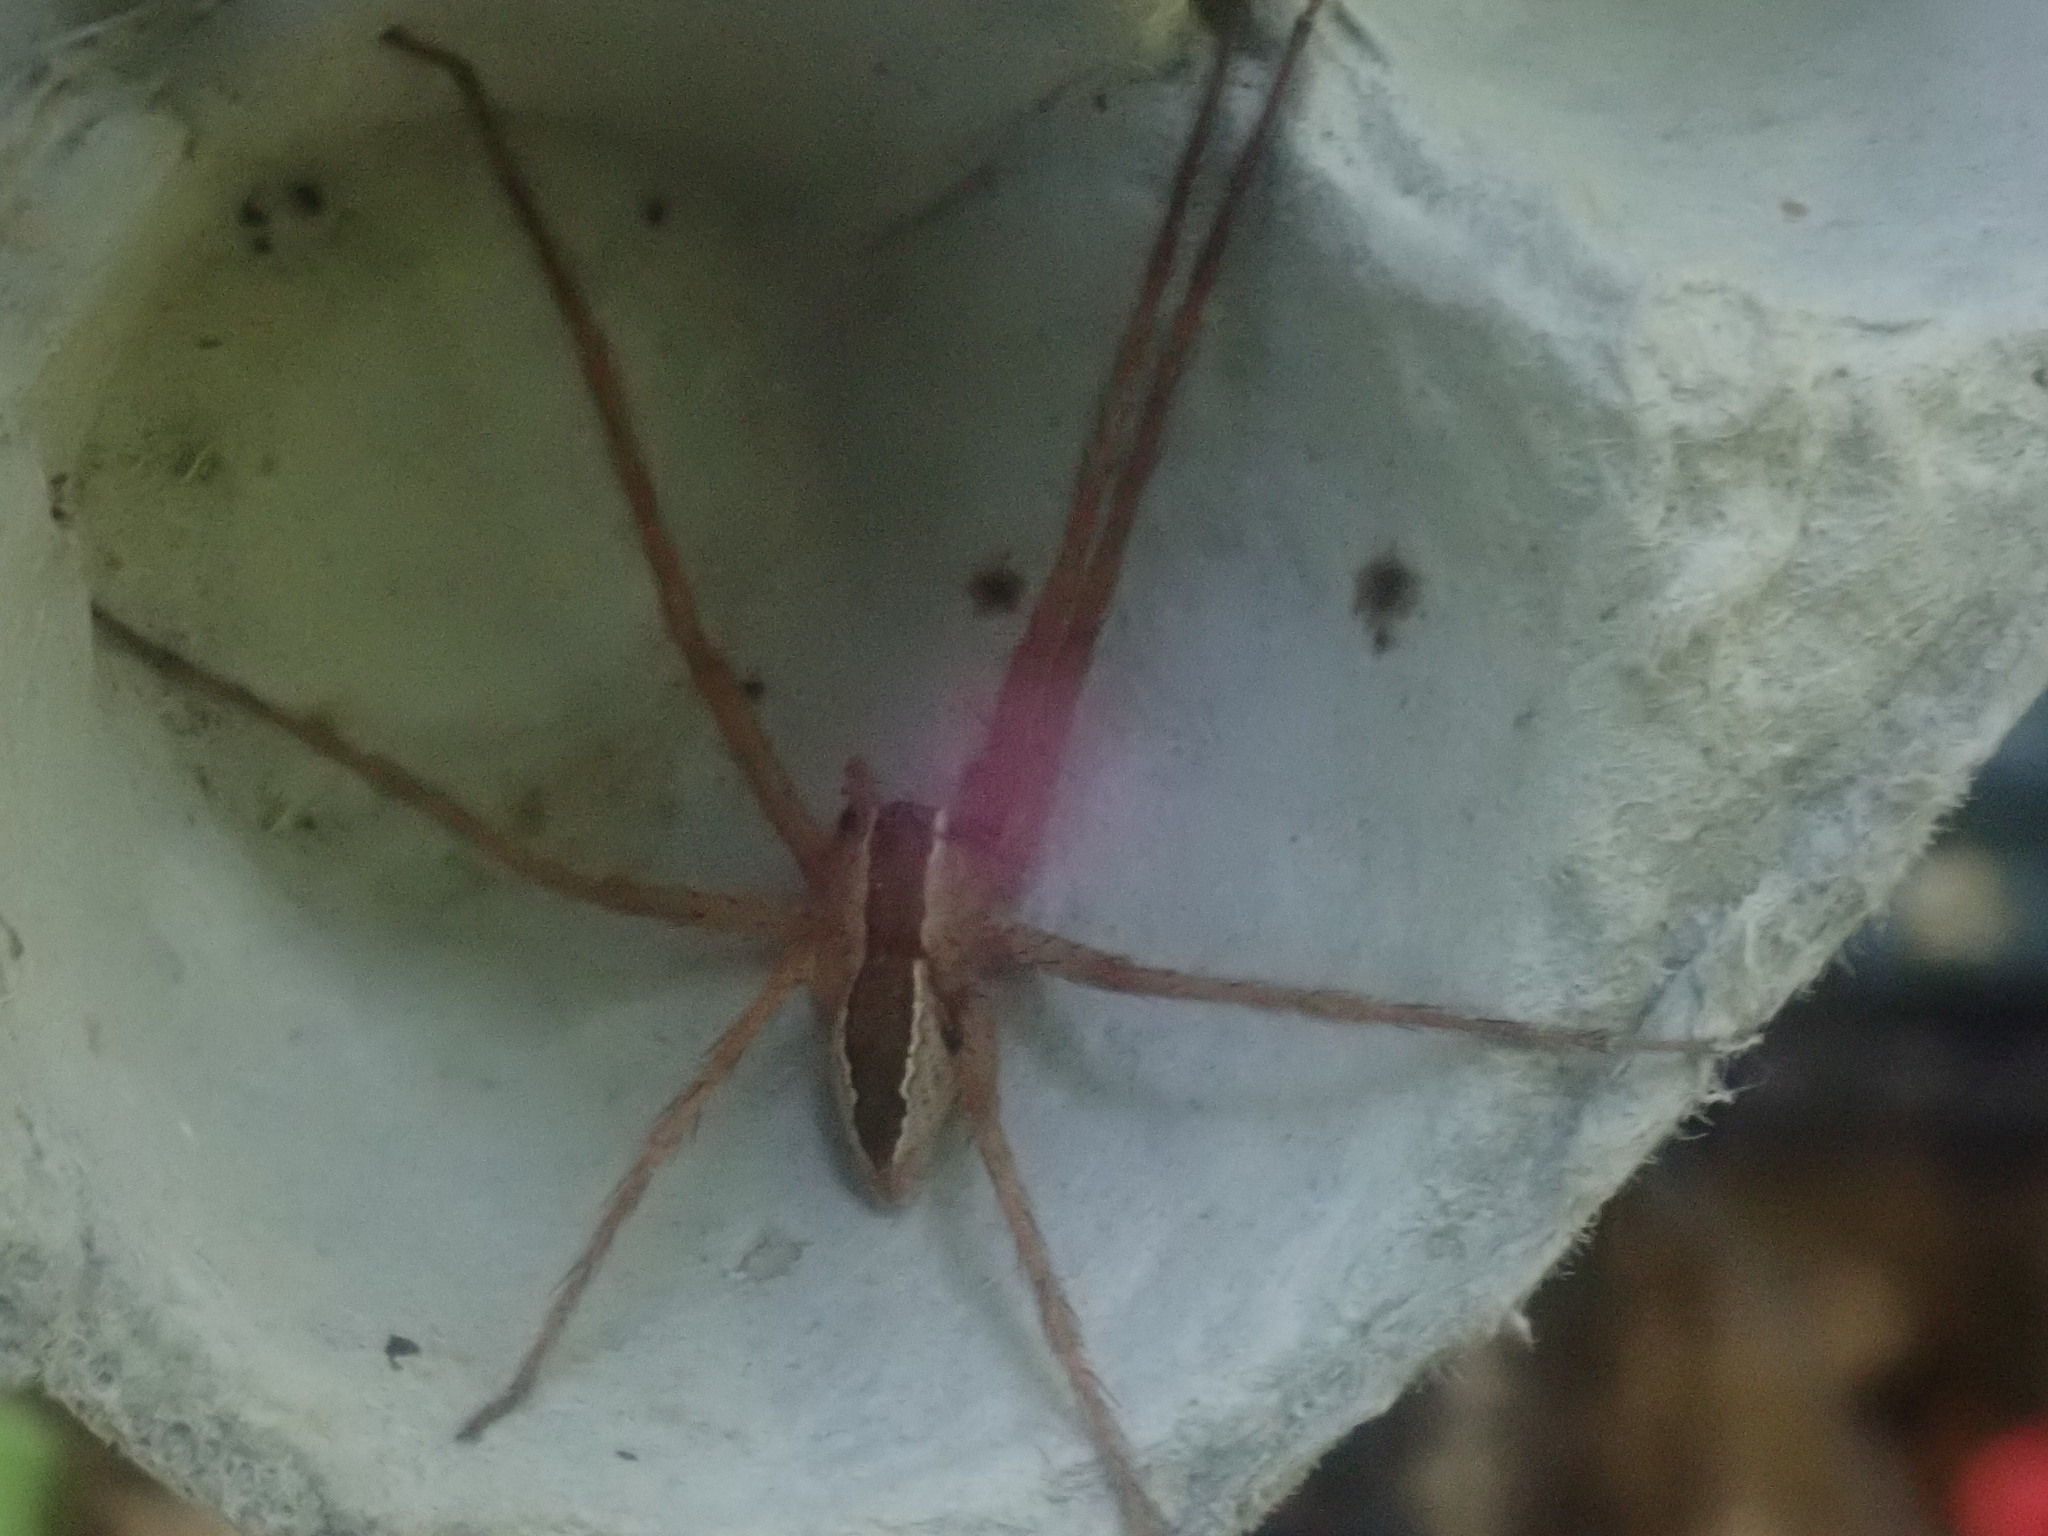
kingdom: Animalia
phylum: Arthropoda
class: Arachnida
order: Araneae
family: Pisauridae
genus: Pisaurina
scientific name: Pisaurina mira
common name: American nursery web spider
